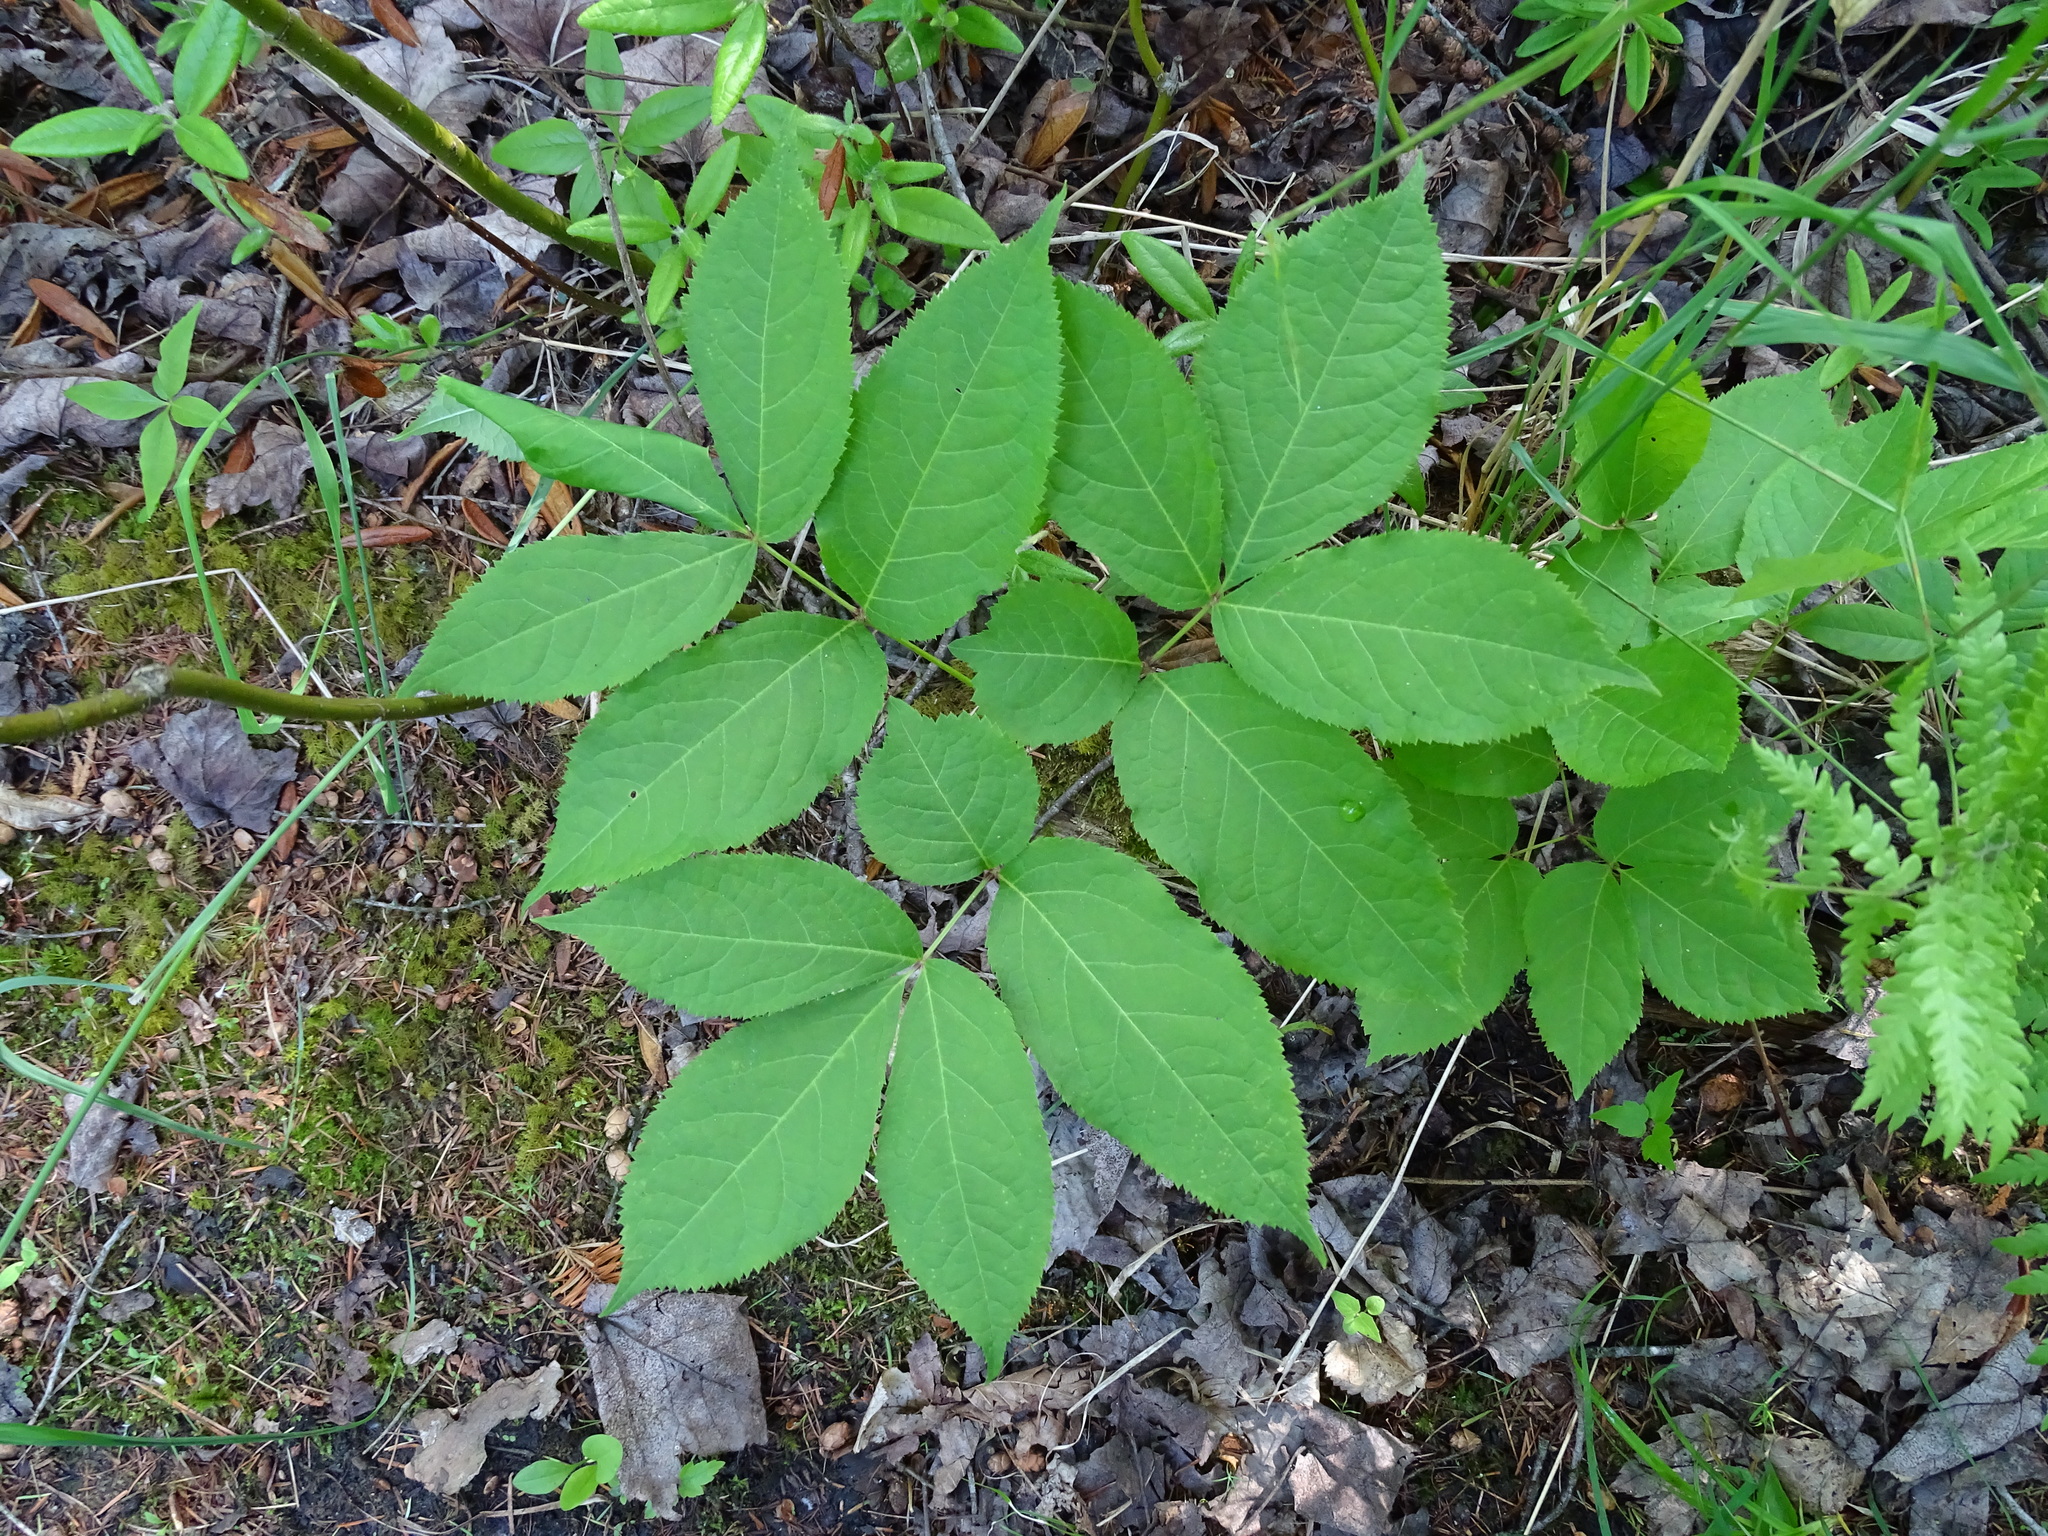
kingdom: Plantae
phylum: Tracheophyta
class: Magnoliopsida
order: Apiales
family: Araliaceae
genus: Aralia
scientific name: Aralia nudicaulis
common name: Wild sarsaparilla
